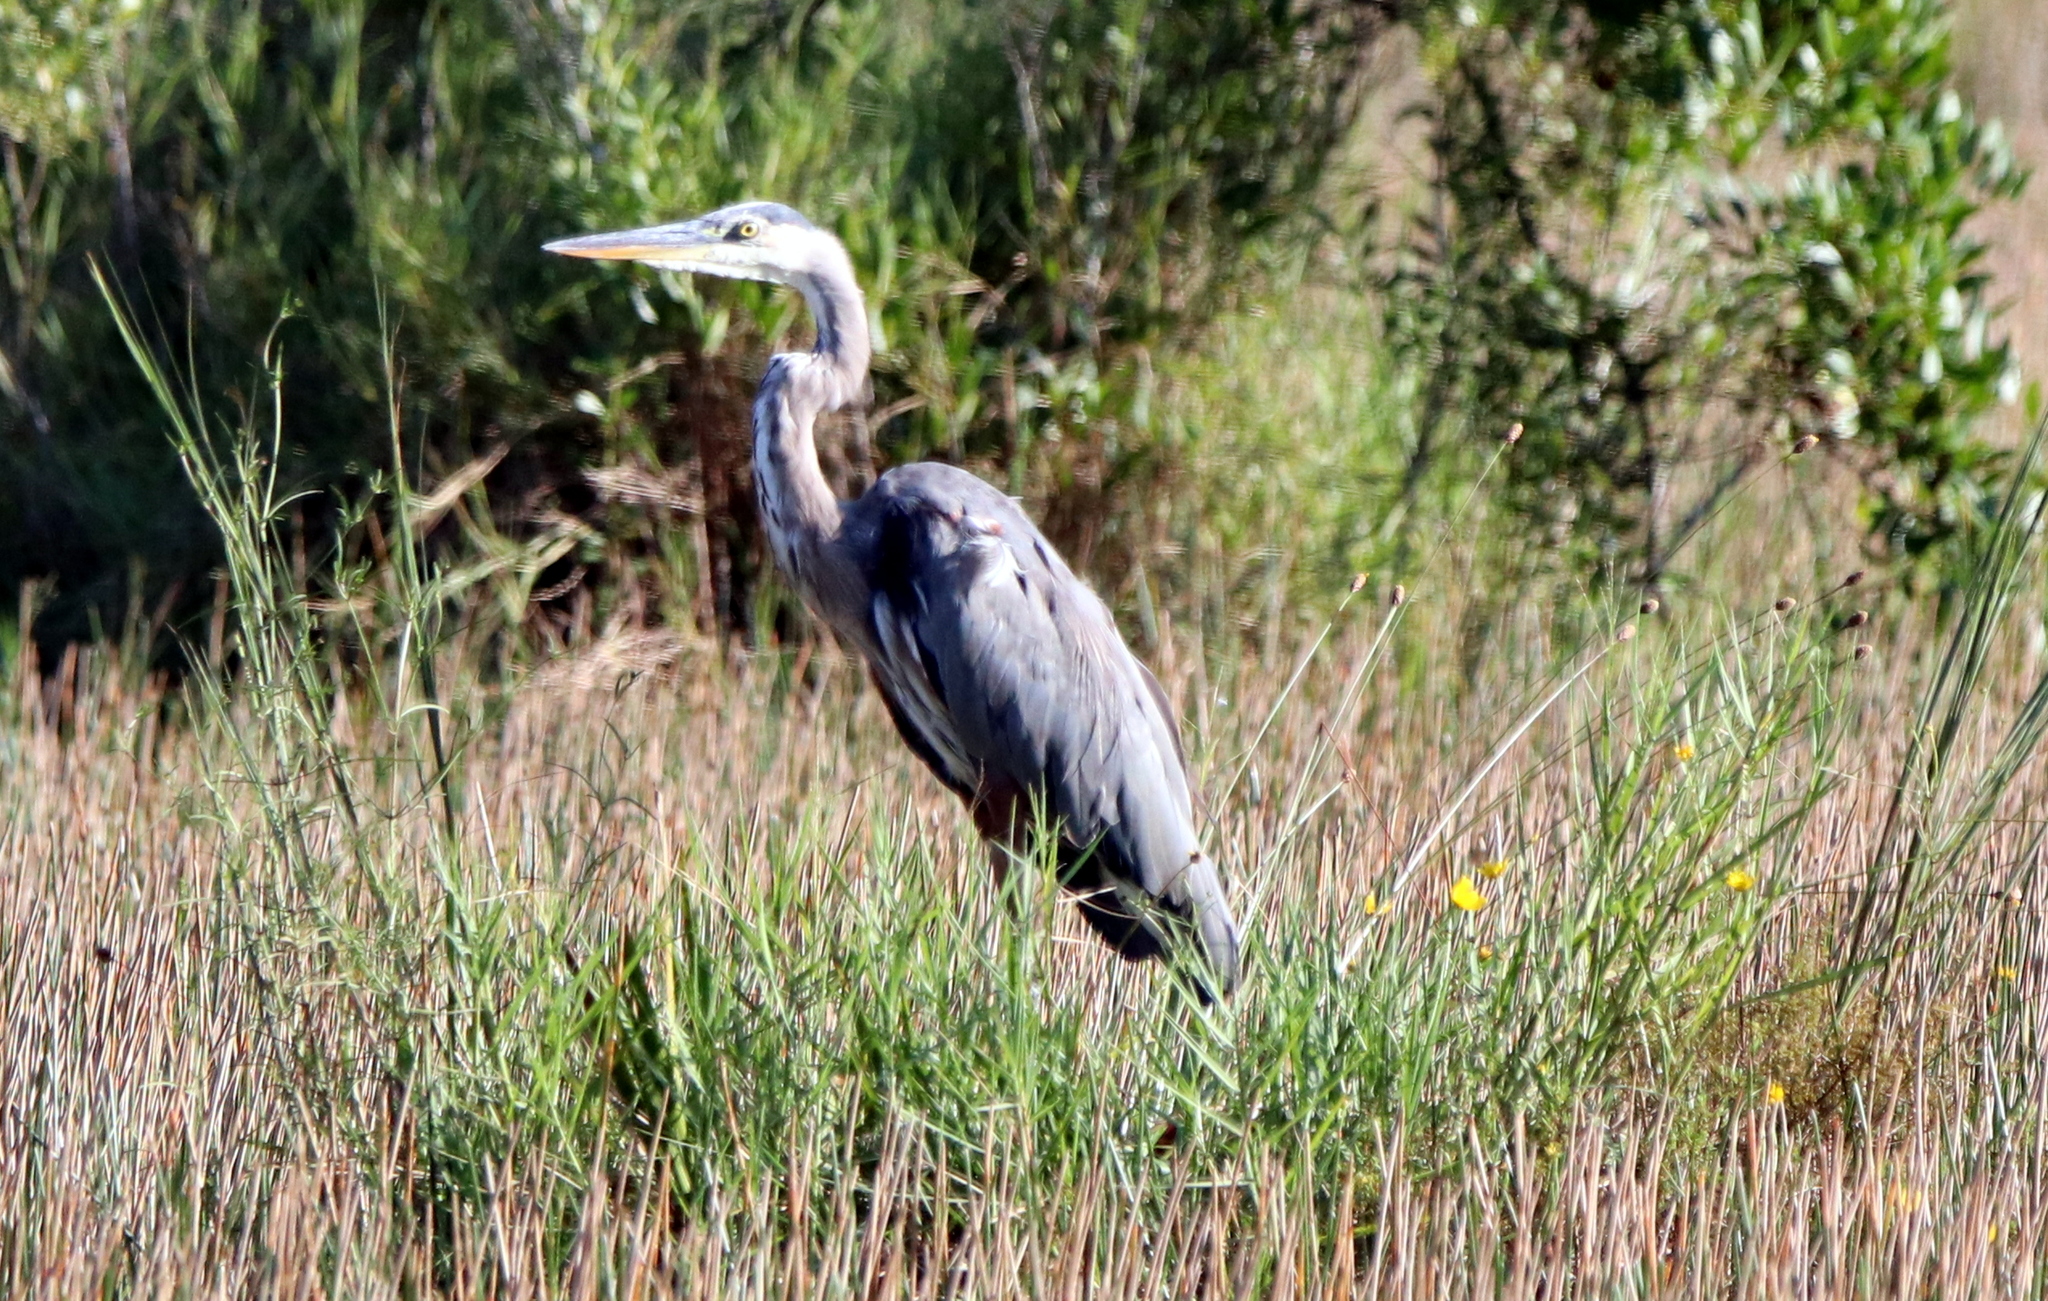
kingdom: Animalia
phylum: Chordata
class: Aves
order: Pelecaniformes
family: Ardeidae
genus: Ardea
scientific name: Ardea herodias
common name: Great blue heron
